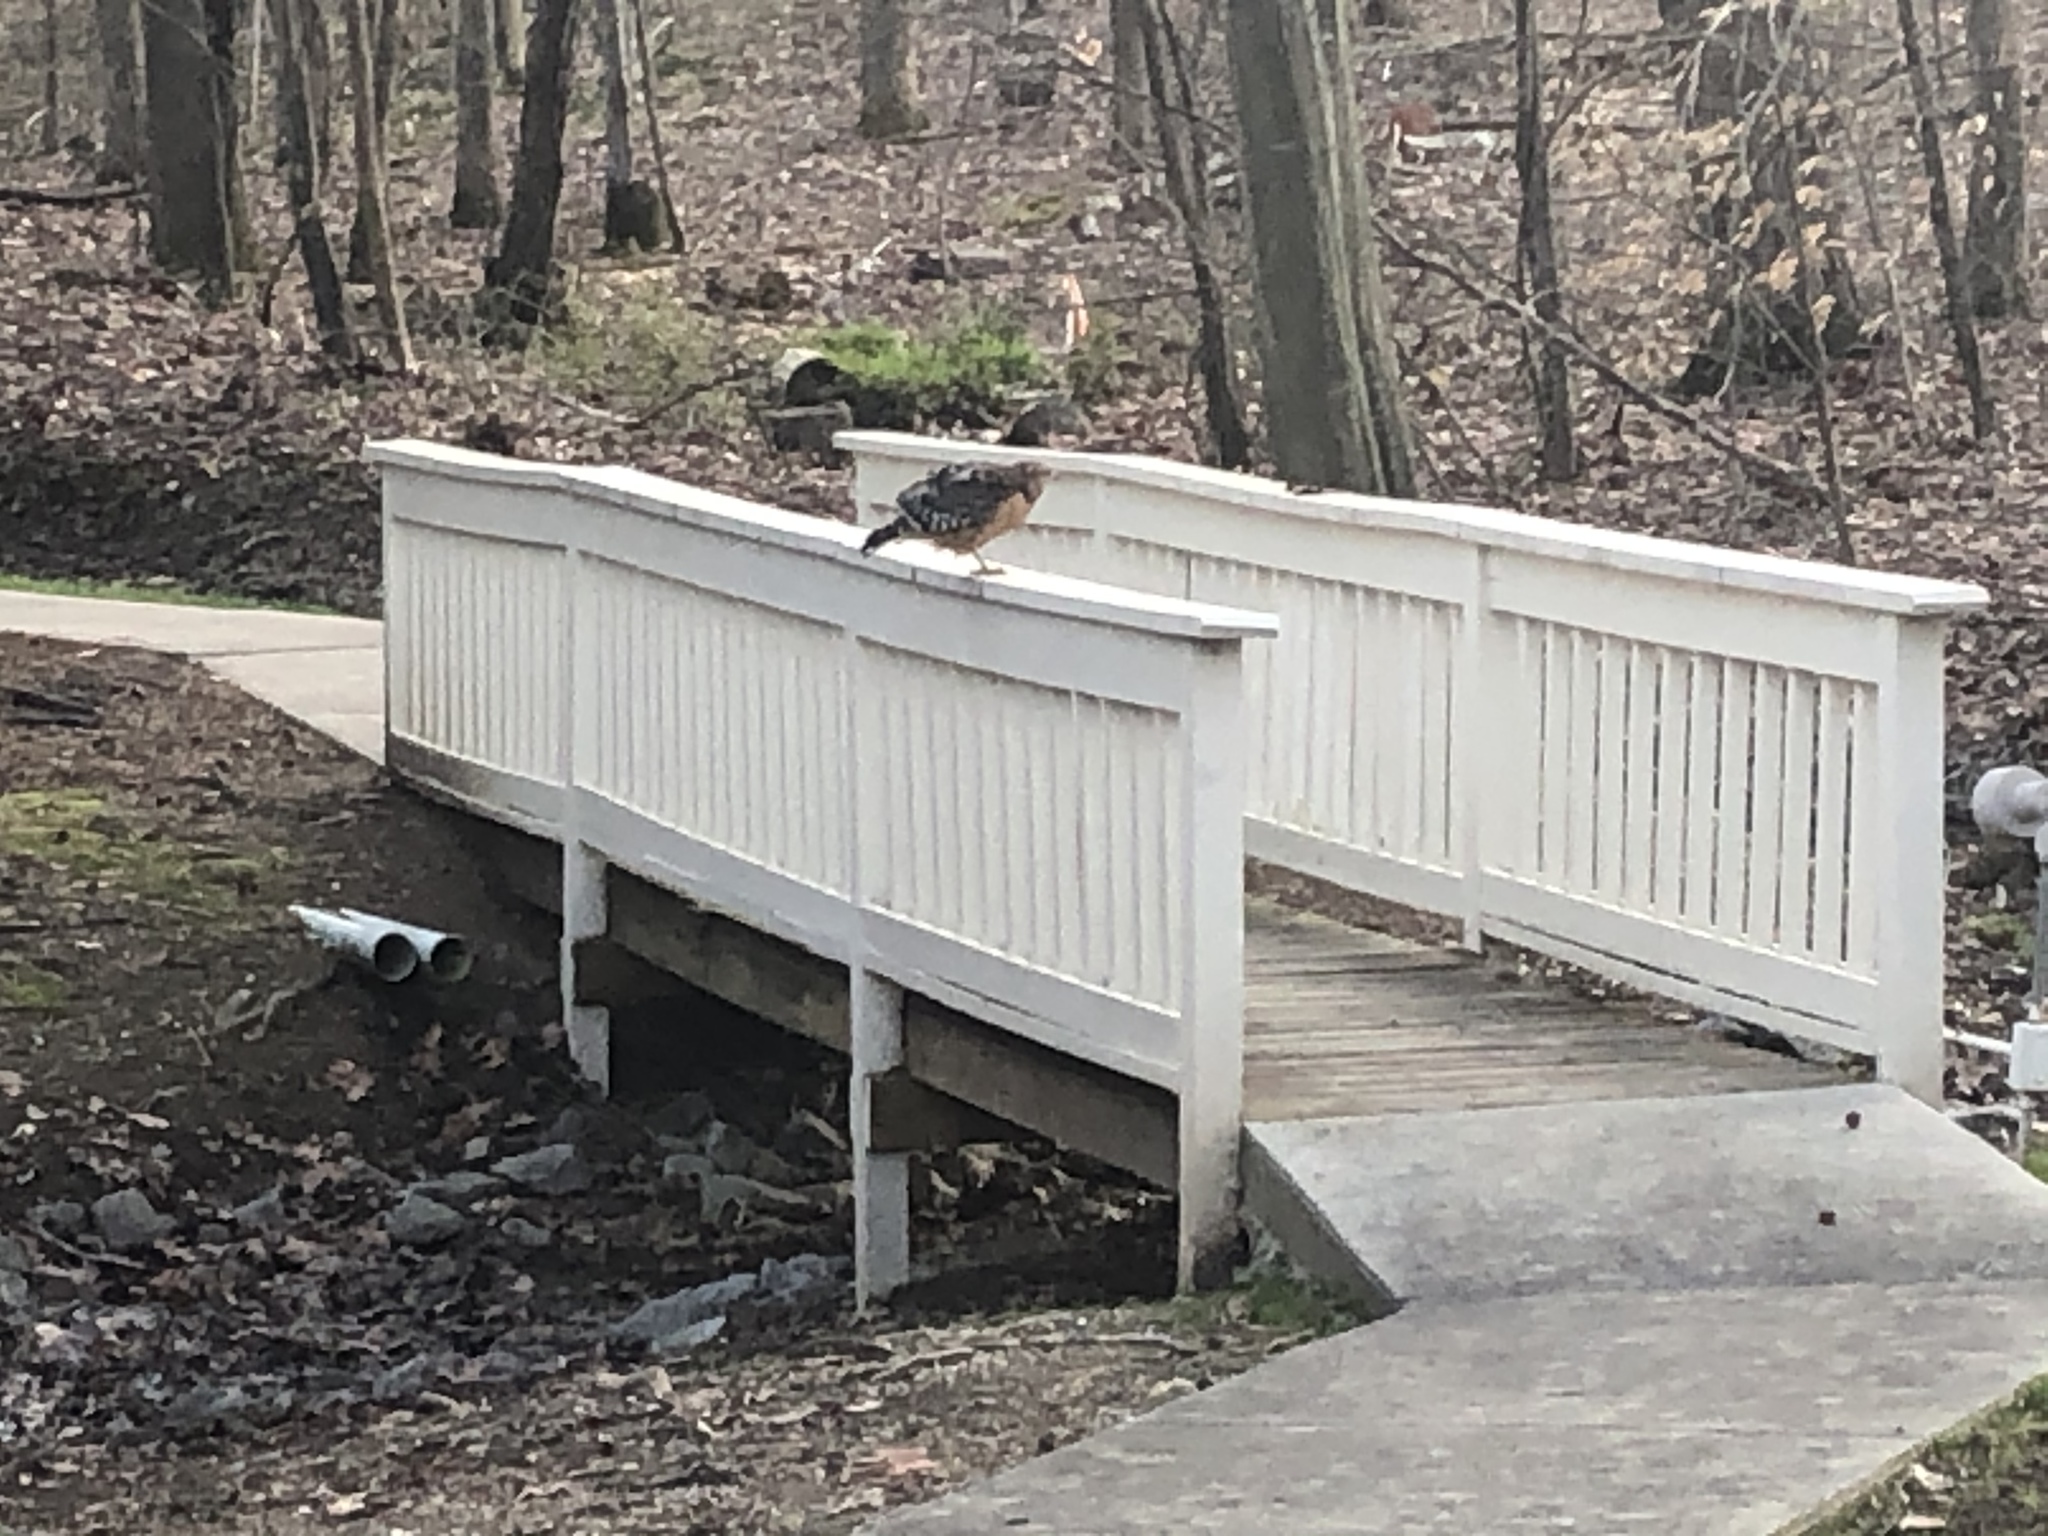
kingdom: Animalia
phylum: Chordata
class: Aves
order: Accipitriformes
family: Accipitridae
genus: Buteo
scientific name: Buteo lineatus
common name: Red-shouldered hawk
